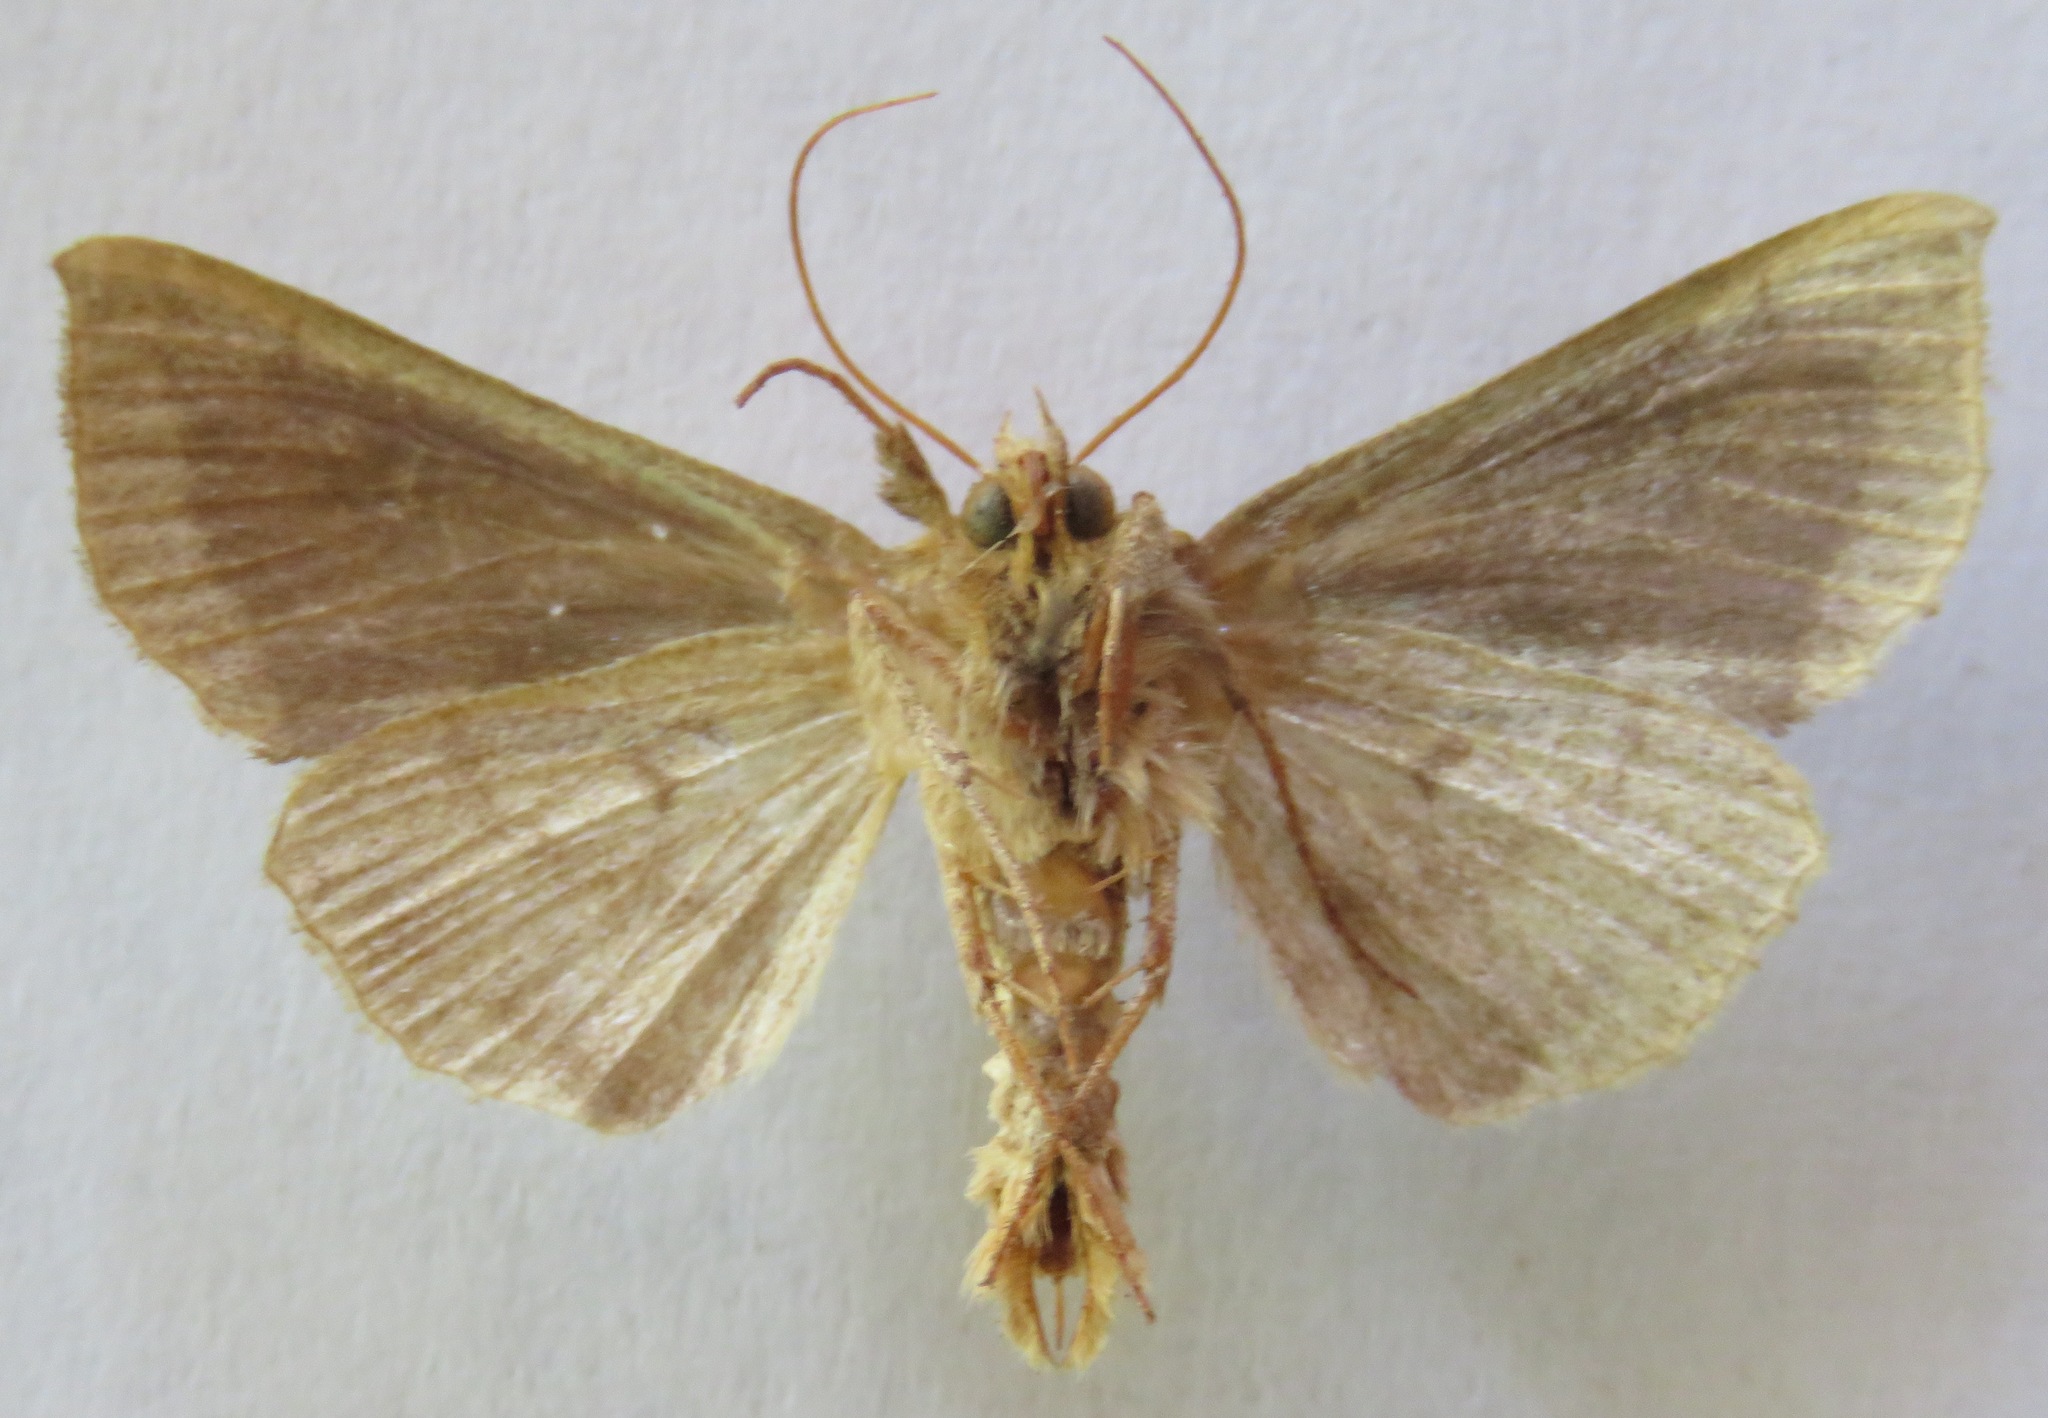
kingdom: Animalia
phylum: Arthropoda
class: Insecta
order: Lepidoptera
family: Noctuidae
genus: Diachrysia
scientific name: Diachrysia chrysitis
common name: Burnished brass
